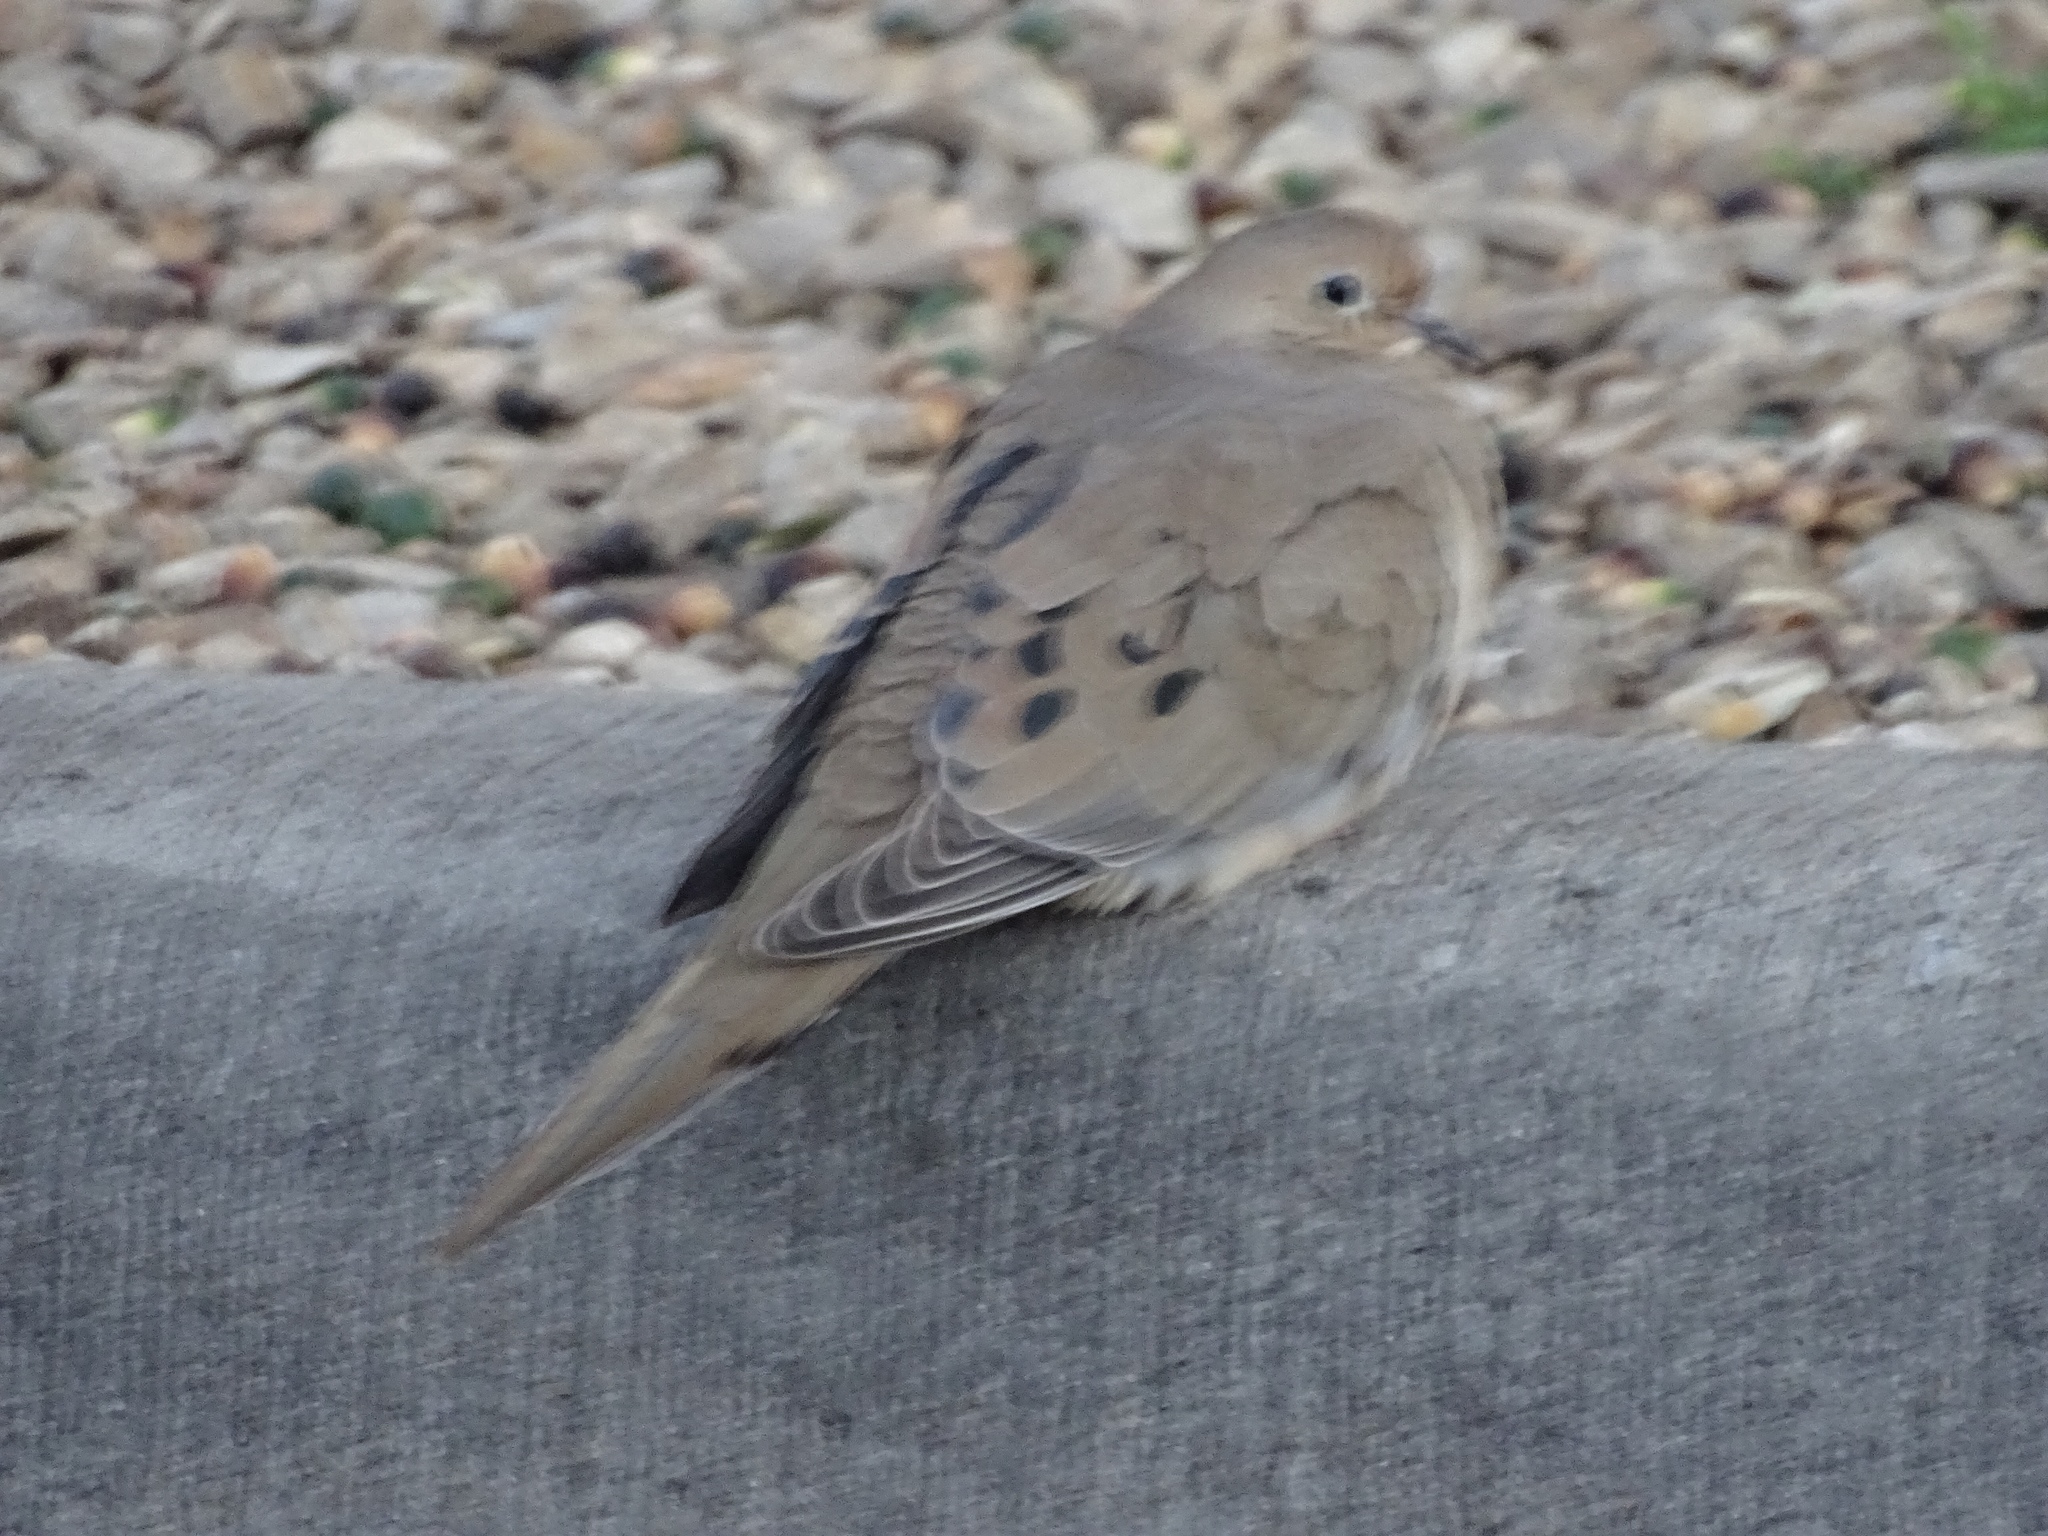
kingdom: Animalia
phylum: Chordata
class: Aves
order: Columbiformes
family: Columbidae
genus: Zenaida
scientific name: Zenaida macroura
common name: Mourning dove
